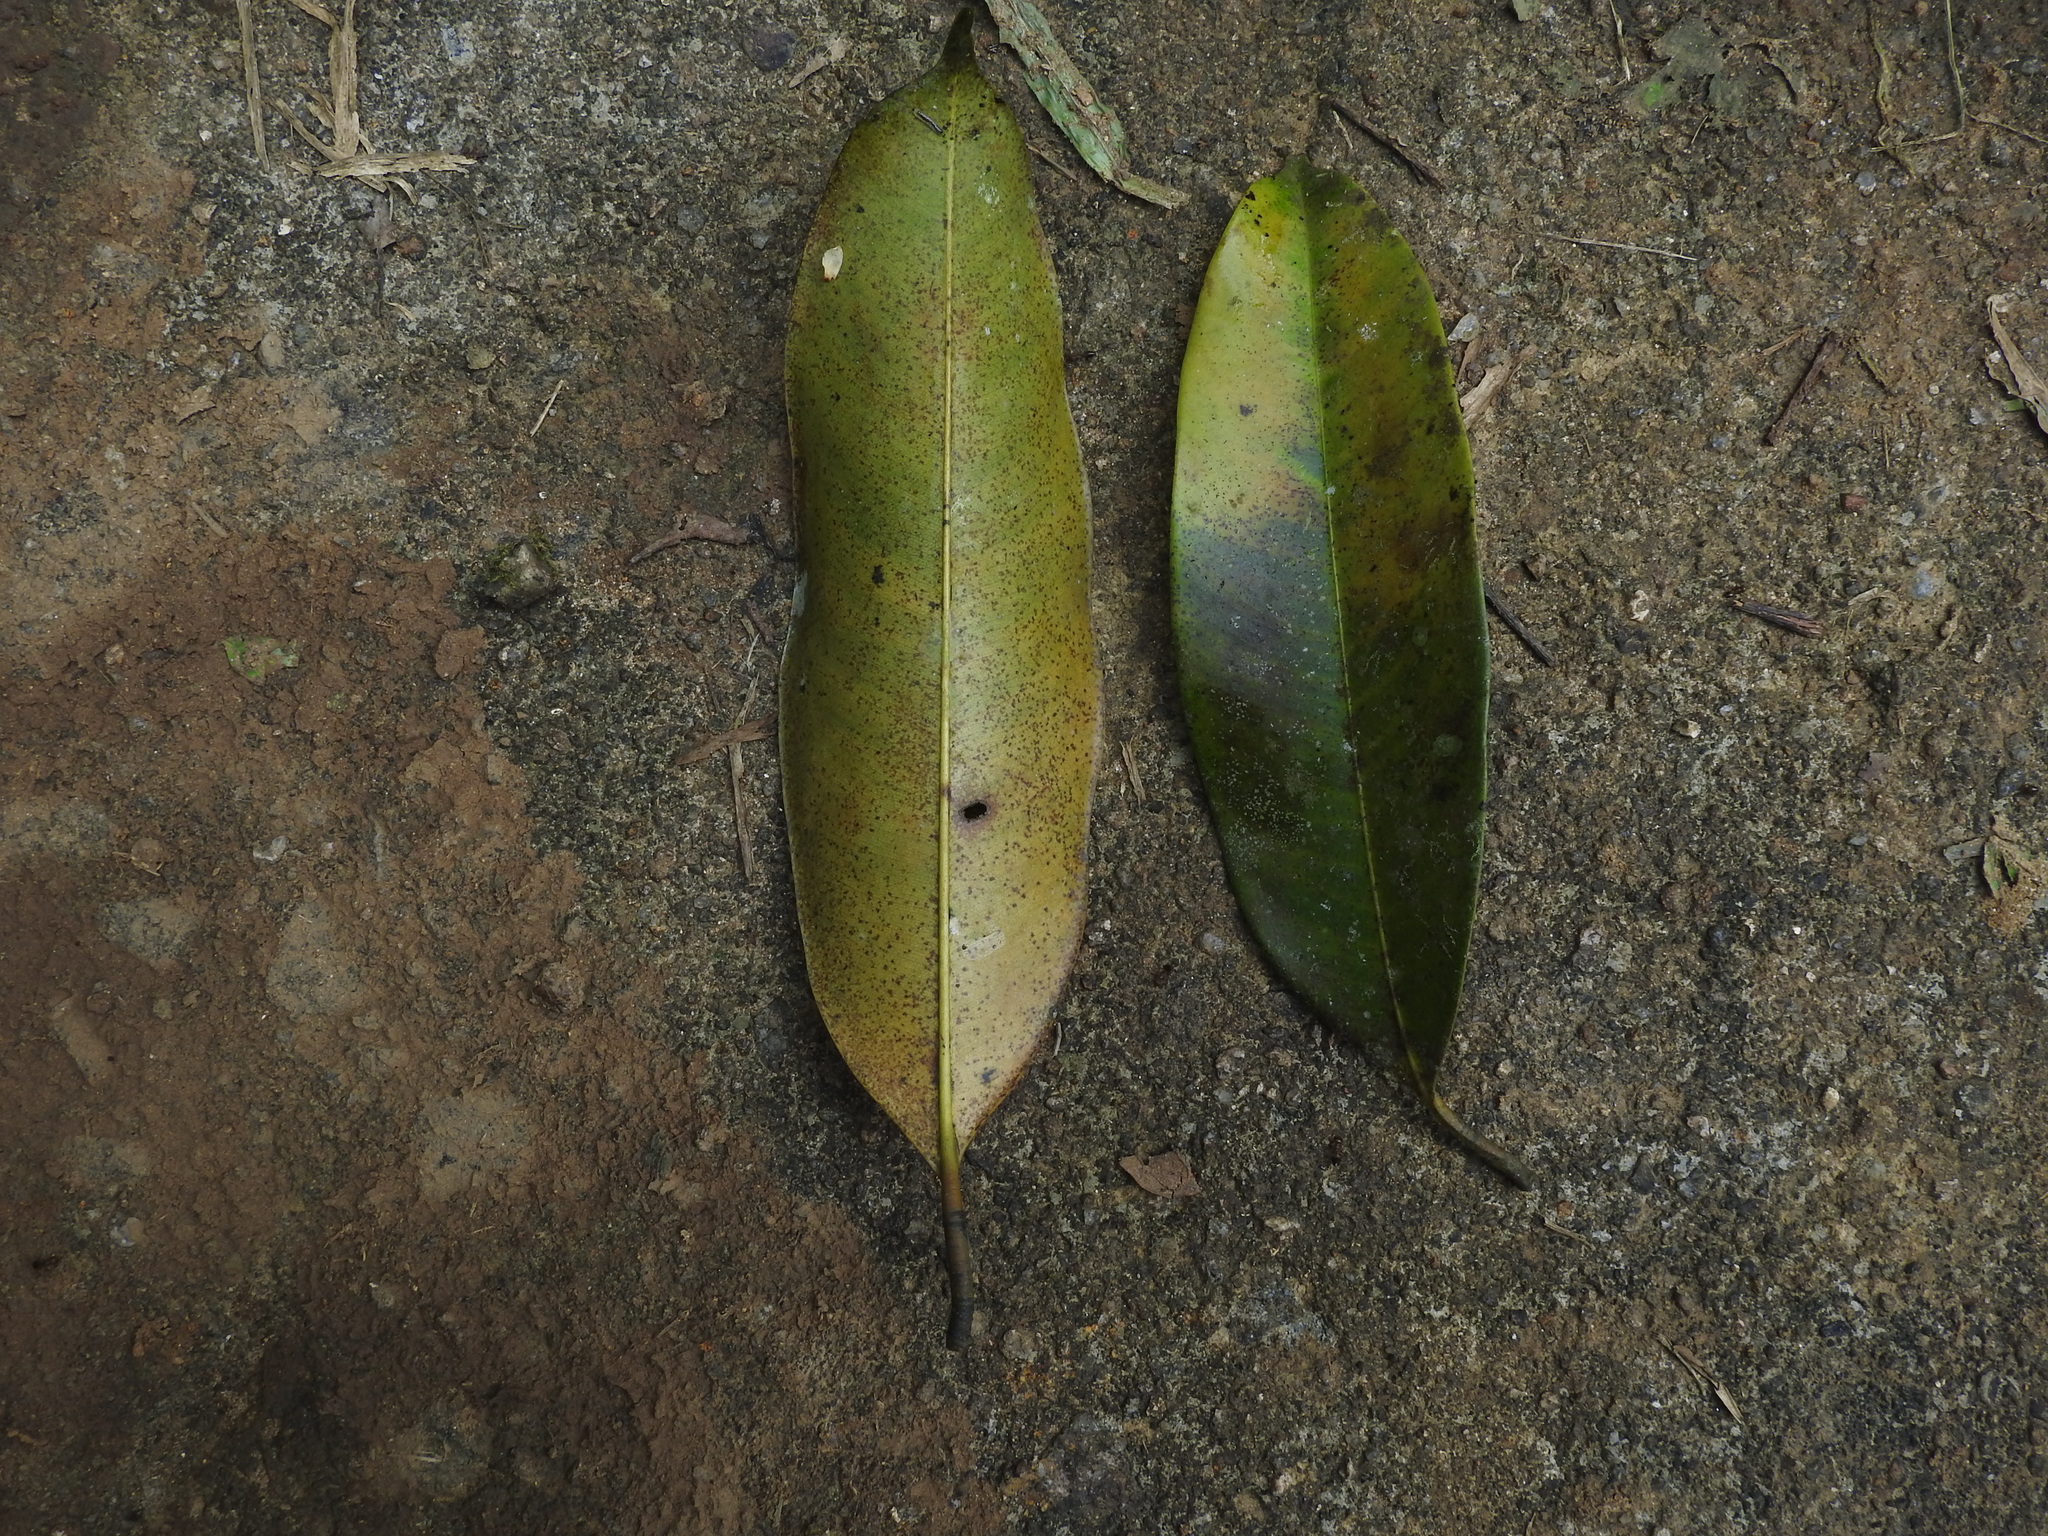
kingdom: Plantae
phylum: Tracheophyta
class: Magnoliopsida
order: Malpighiales
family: Calophyllaceae
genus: Poeciloneuron
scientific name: Poeciloneuron indicum
